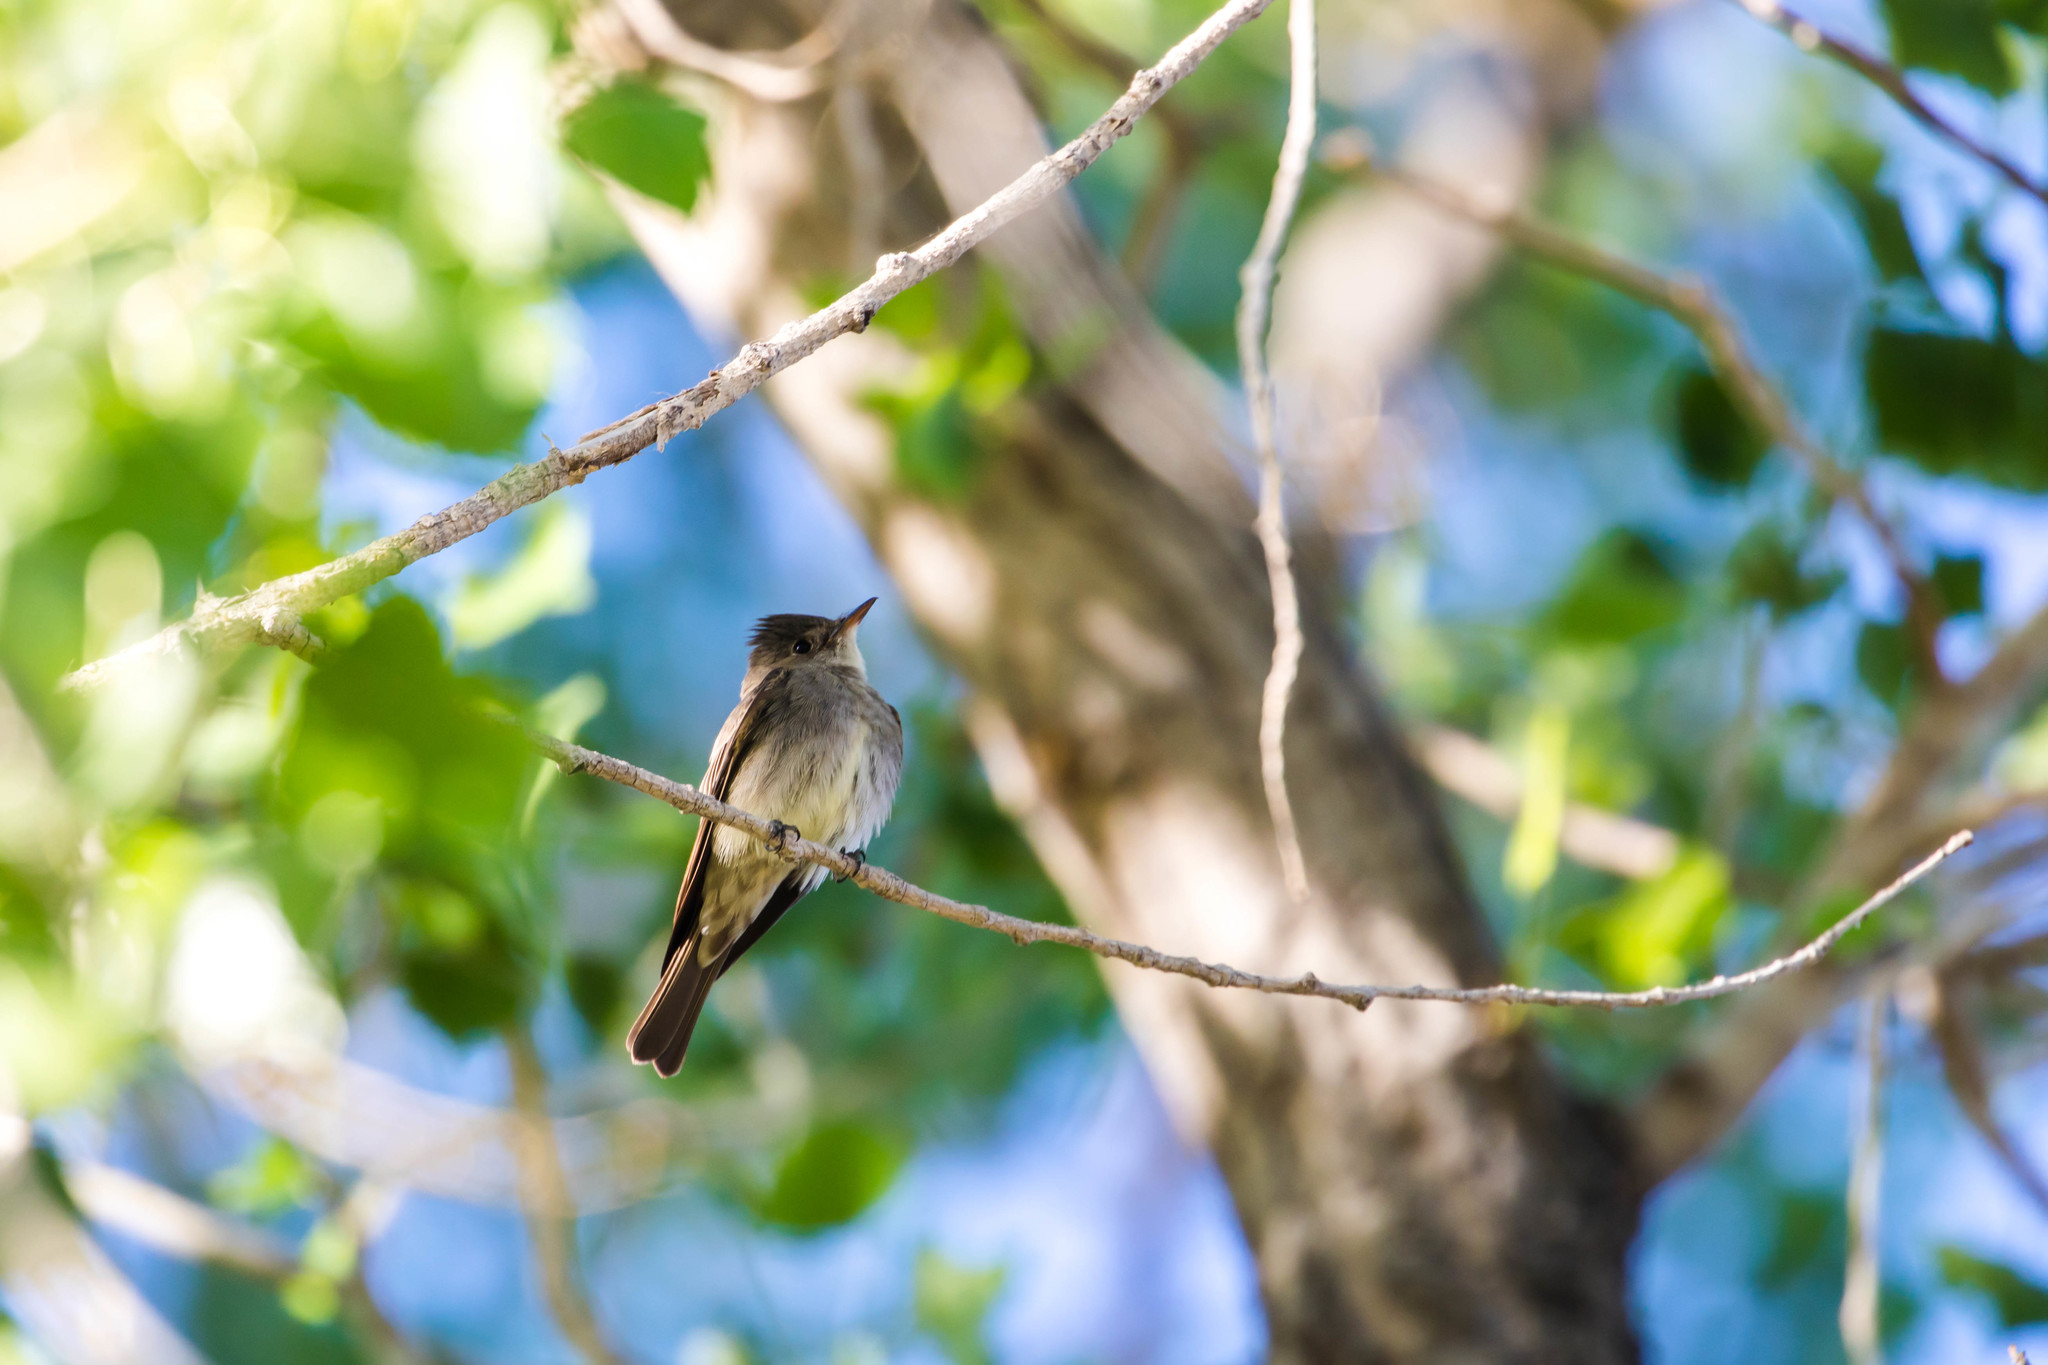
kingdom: Animalia
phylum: Chordata
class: Aves
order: Passeriformes
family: Tyrannidae
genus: Contopus
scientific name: Contopus sordidulus
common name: Western wood-pewee
